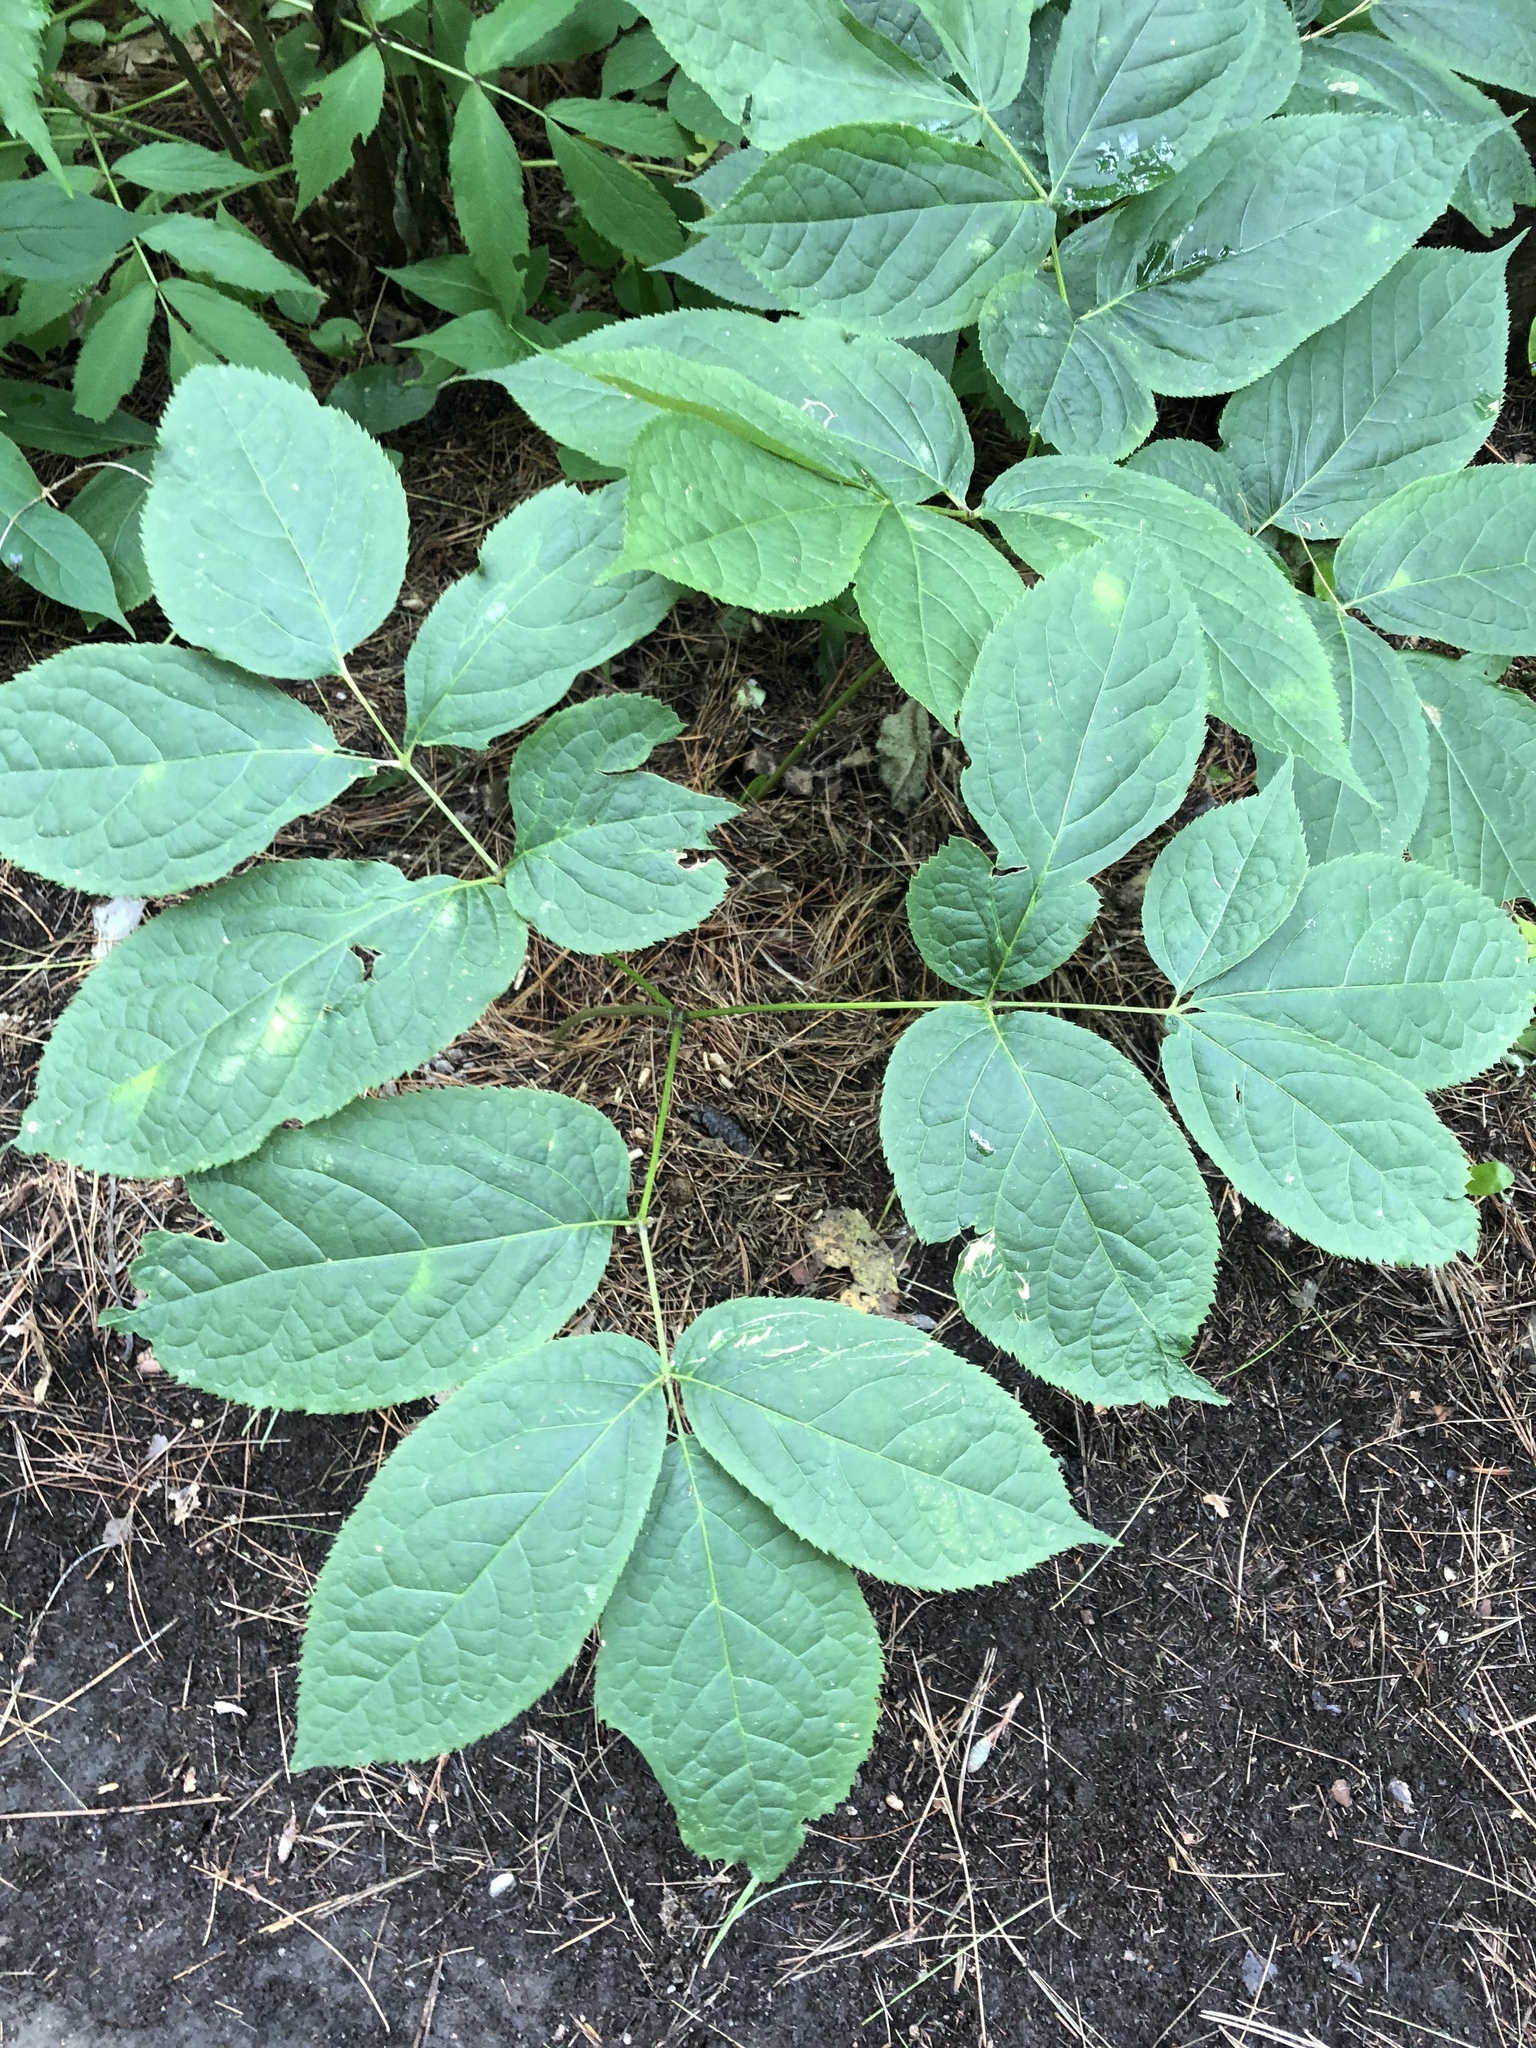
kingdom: Plantae
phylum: Tracheophyta
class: Magnoliopsida
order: Apiales
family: Araliaceae
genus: Aralia
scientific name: Aralia nudicaulis
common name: Wild sarsaparilla
